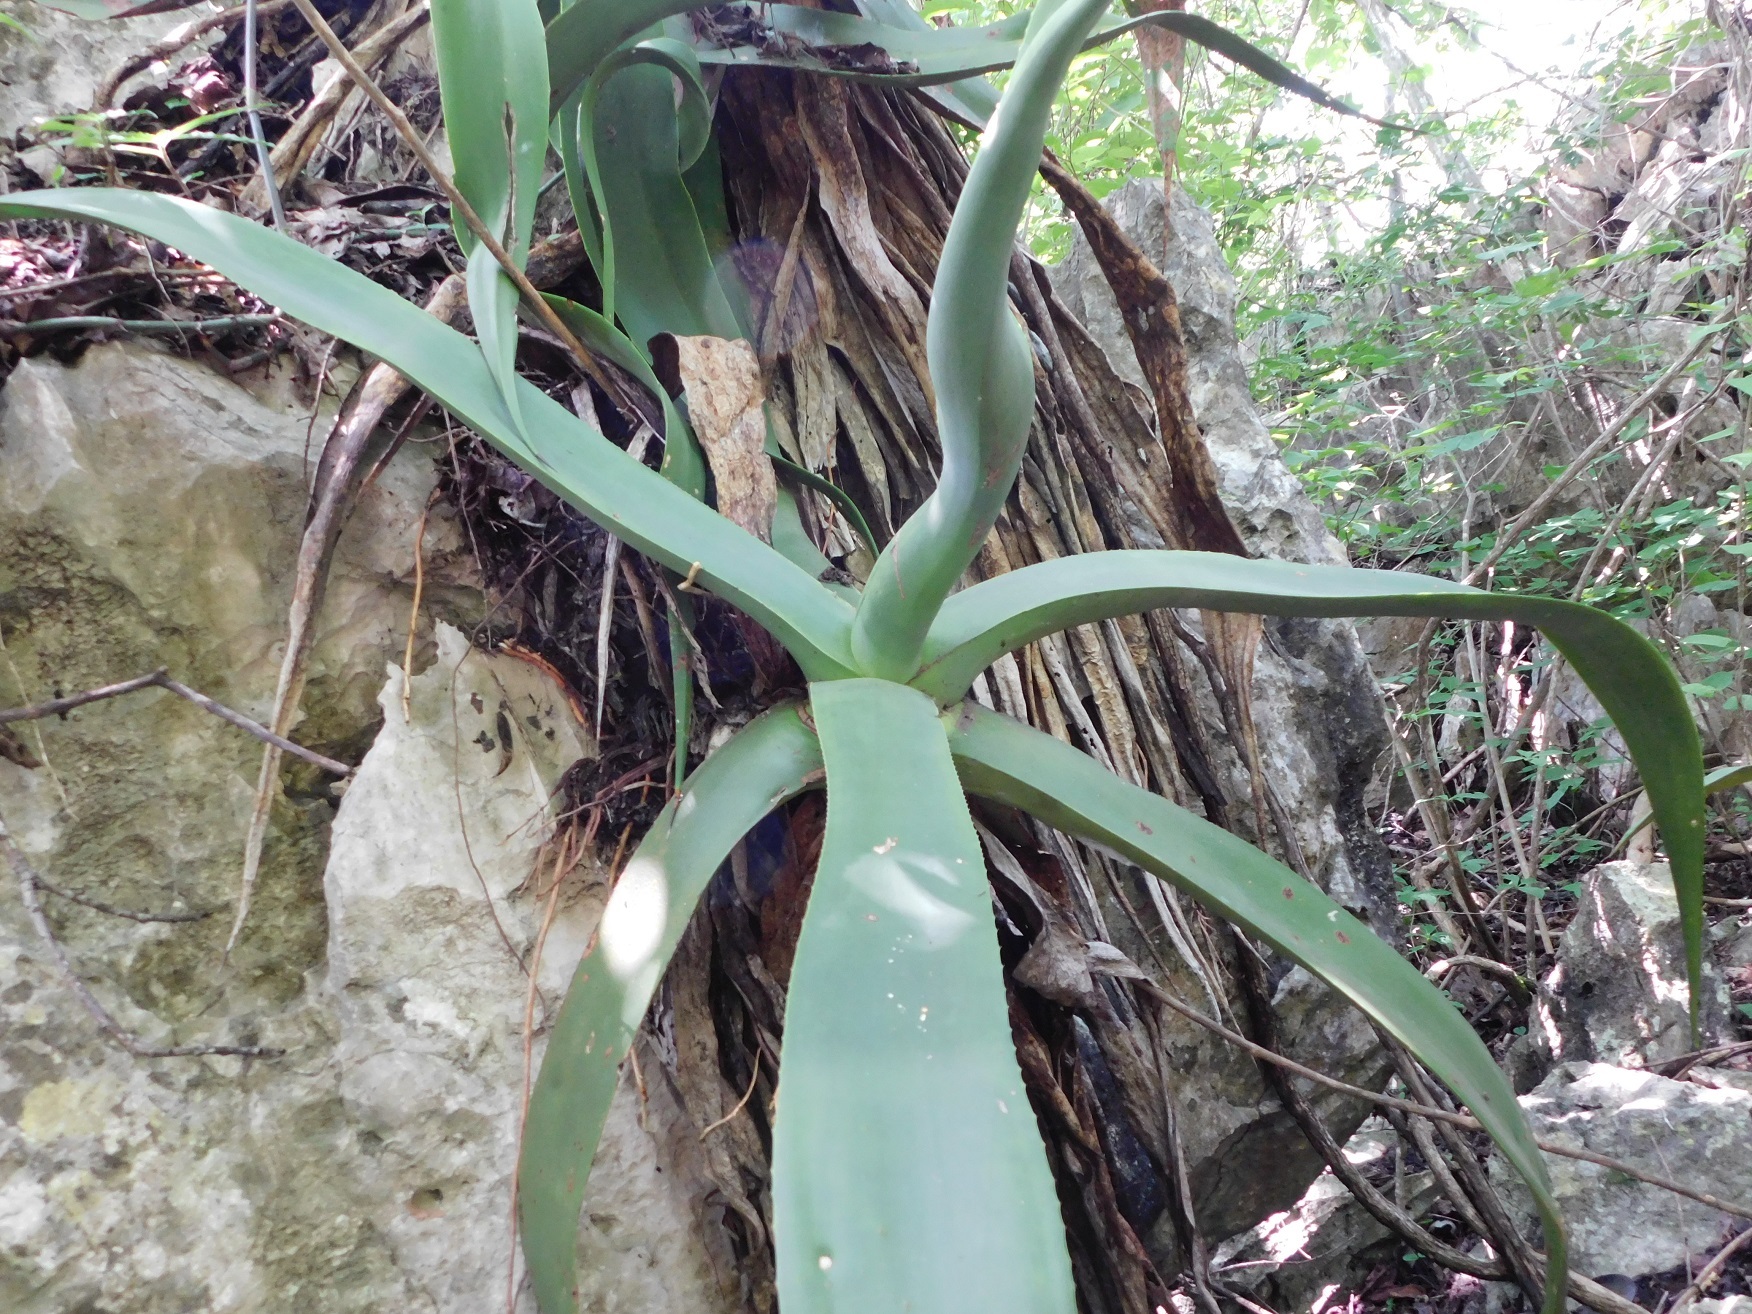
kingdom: Plantae
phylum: Tracheophyta
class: Liliopsida
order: Asparagales
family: Asparagaceae
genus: Agave
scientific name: Agave kewensis
